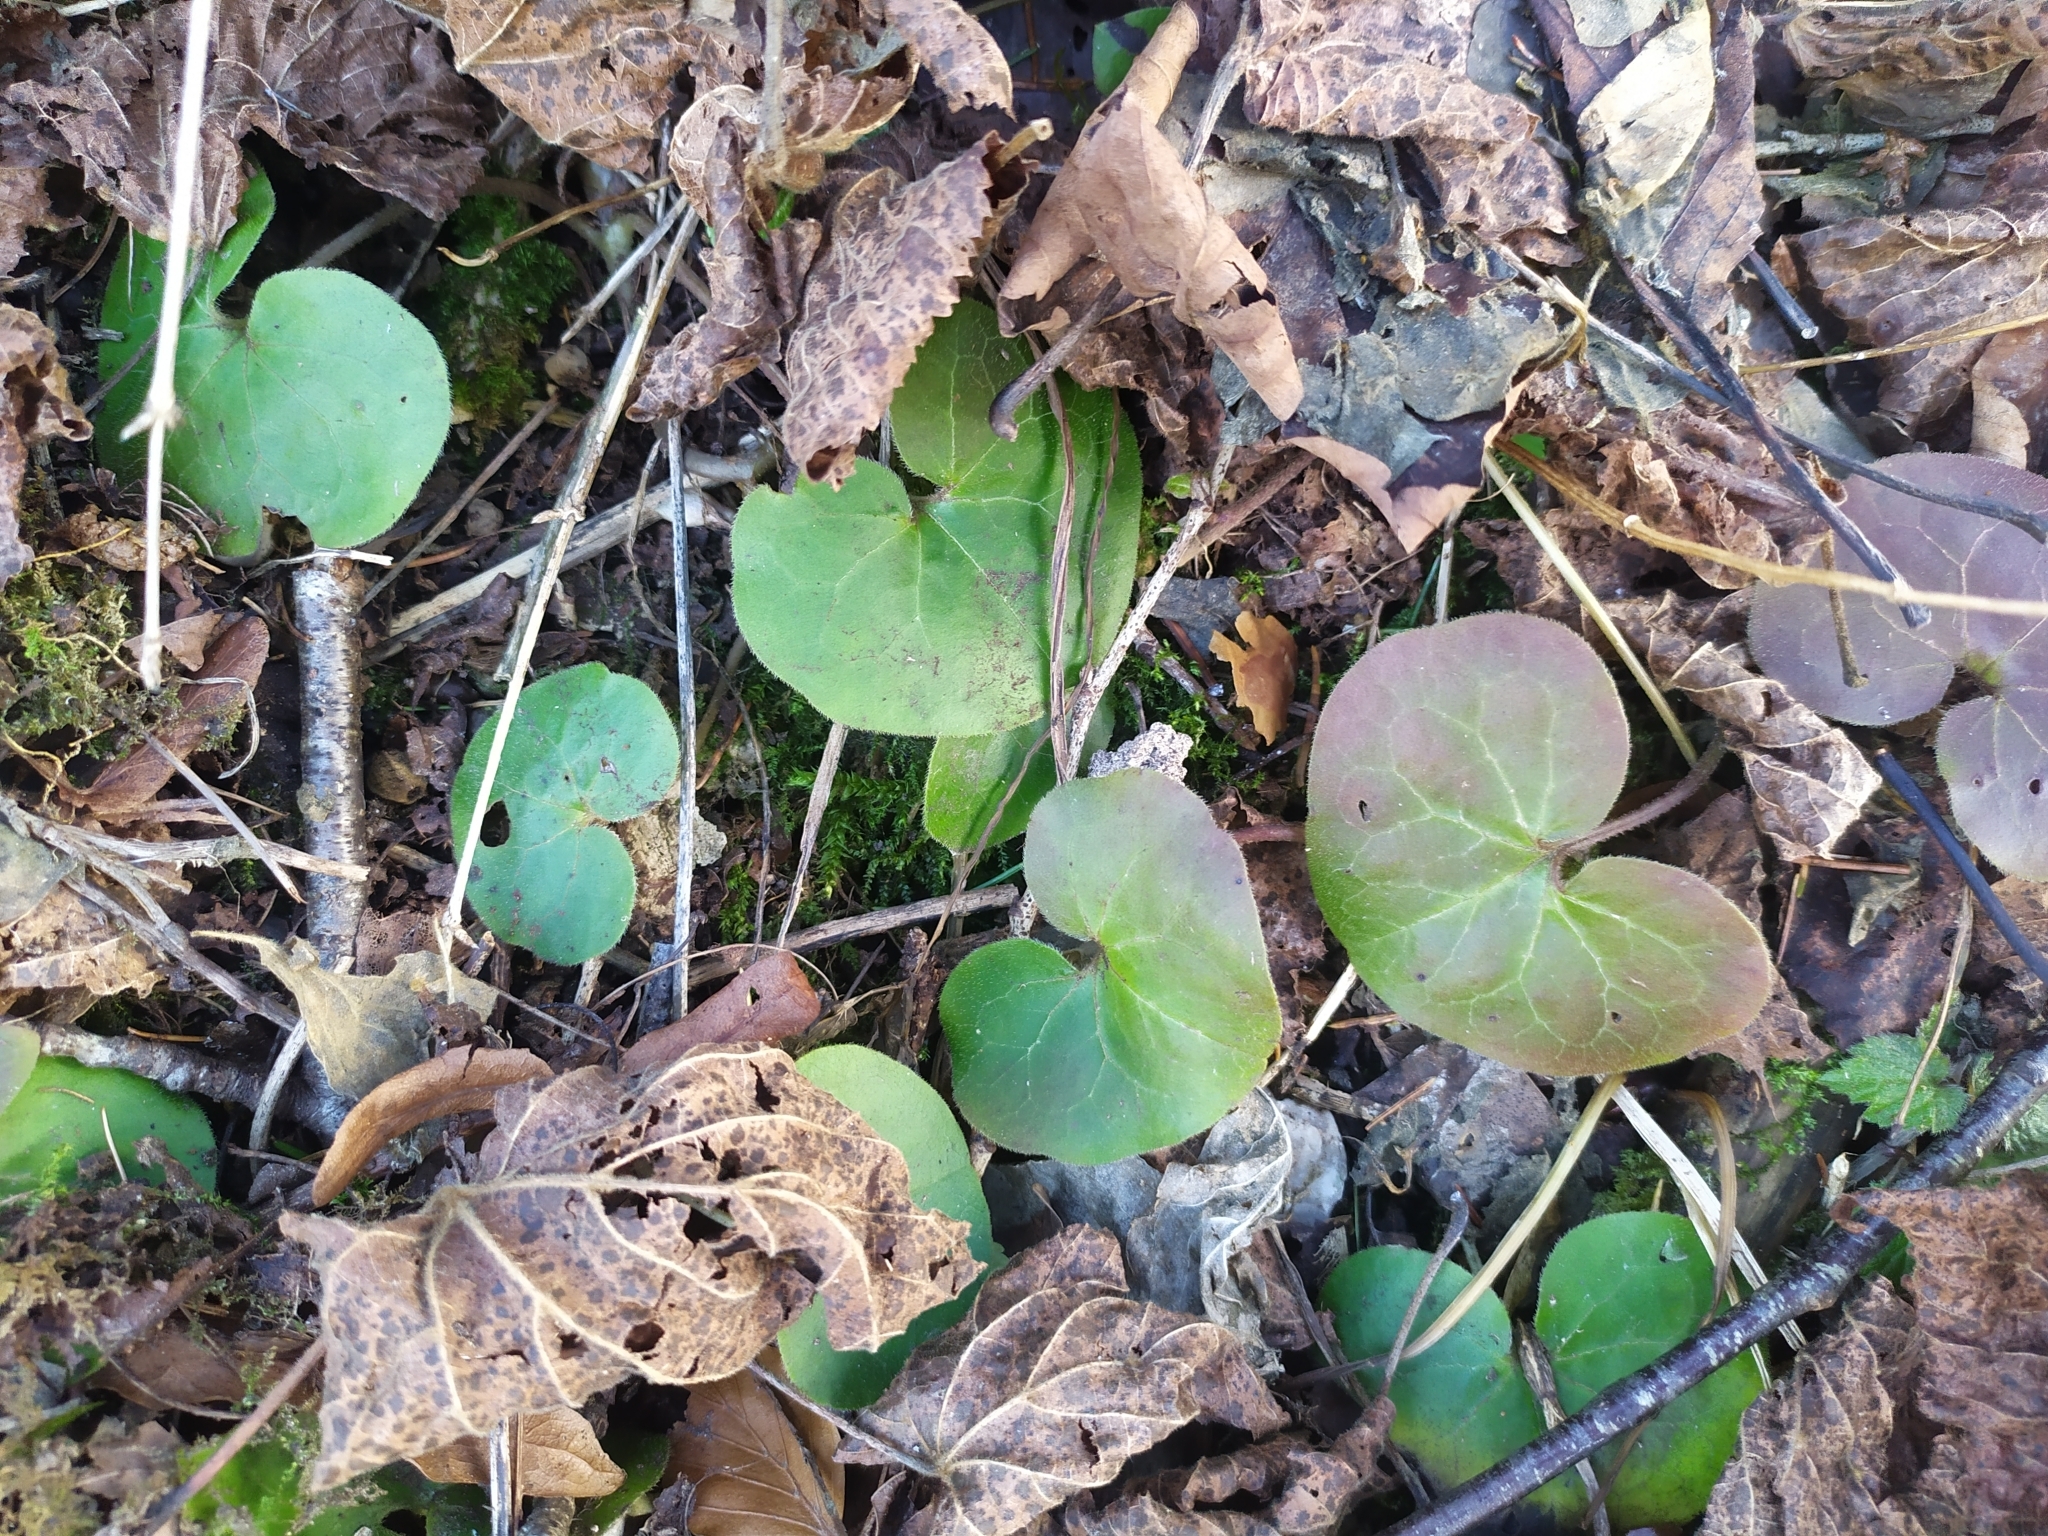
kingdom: Plantae
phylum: Tracheophyta
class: Magnoliopsida
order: Piperales
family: Aristolochiaceae
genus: Asarum
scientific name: Asarum europaeum
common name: Asarabacca
